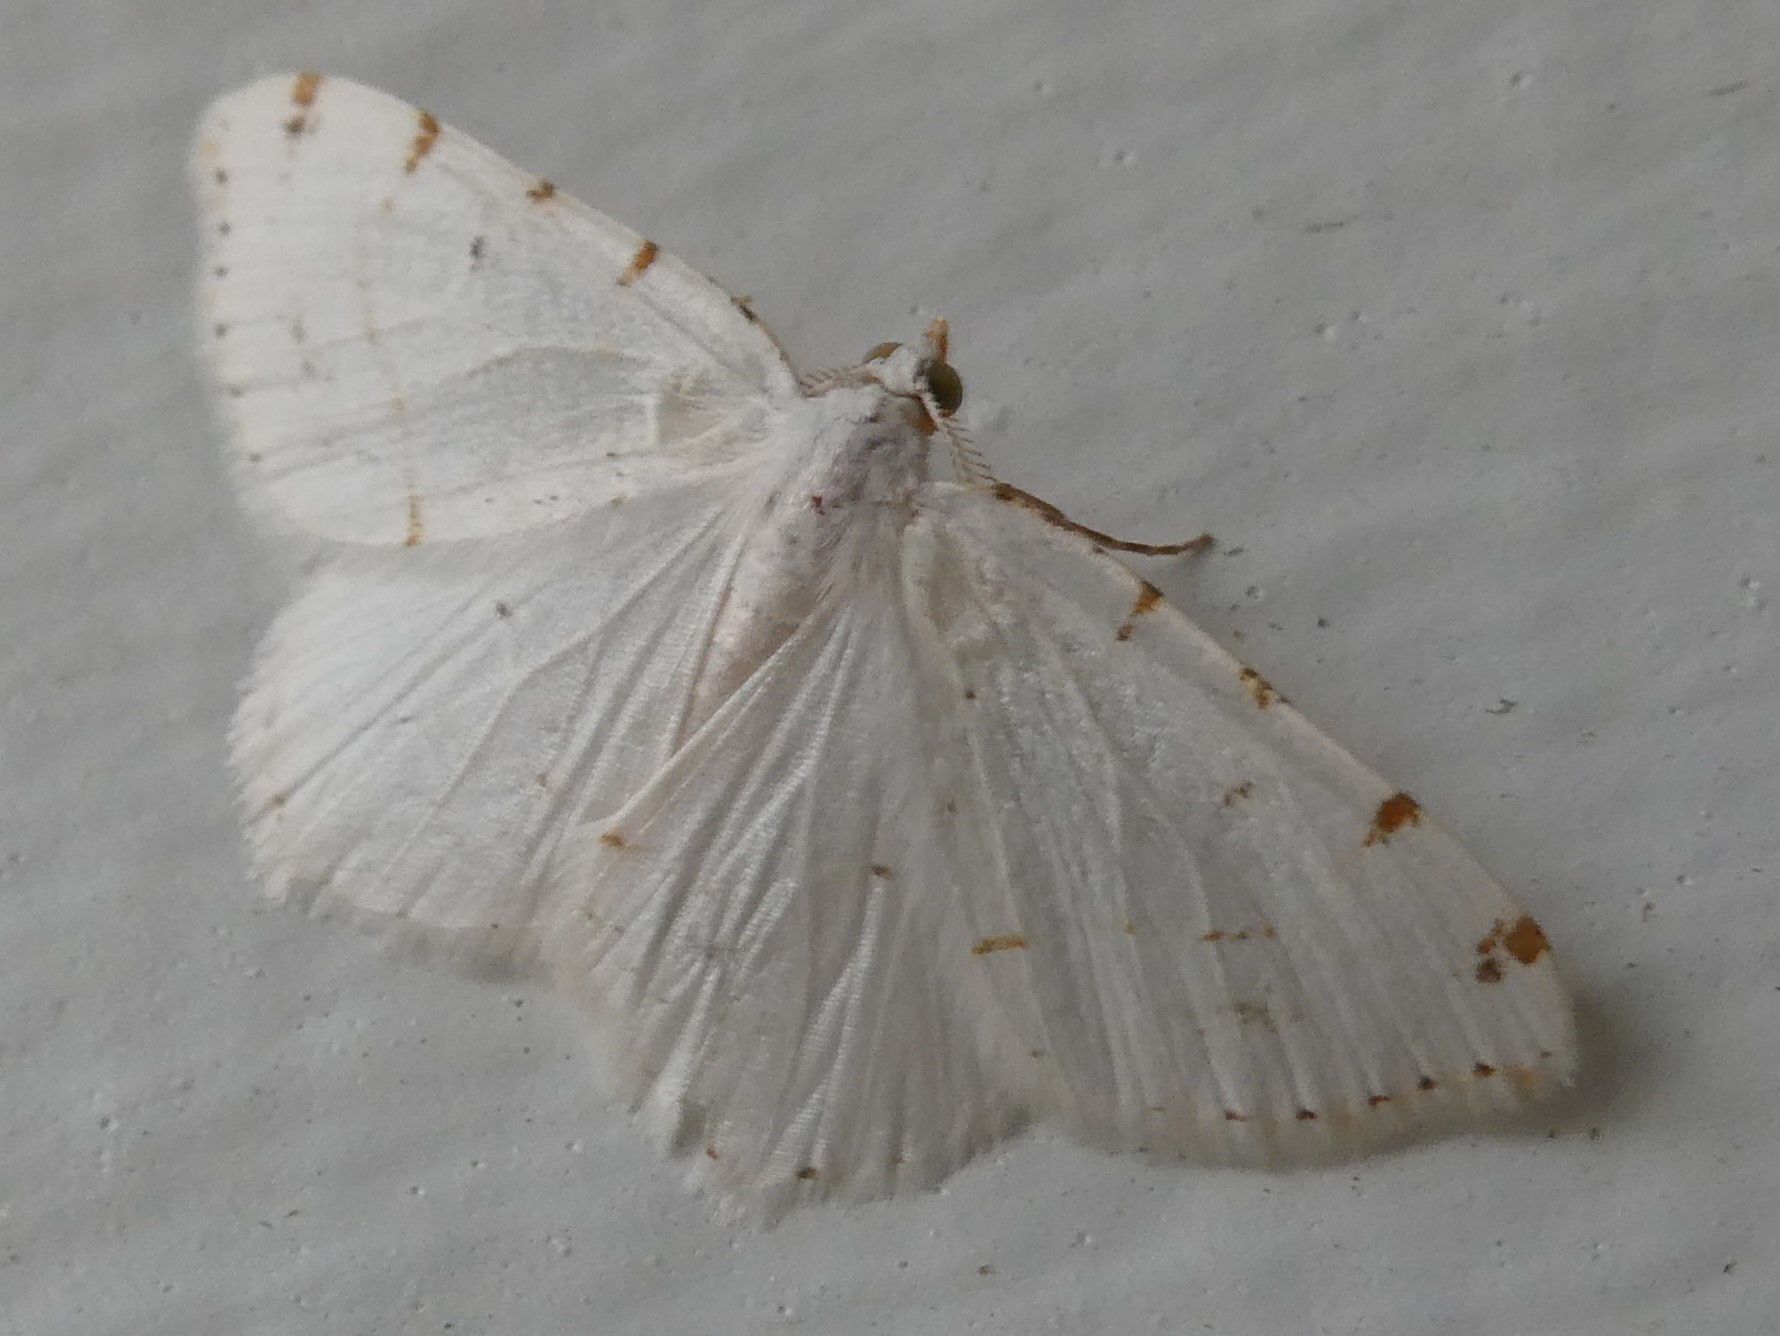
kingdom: Animalia
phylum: Arthropoda
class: Insecta
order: Lepidoptera
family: Geometridae
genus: Macaria
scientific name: Macaria pustularia
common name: Lesser maple spanworm moth
